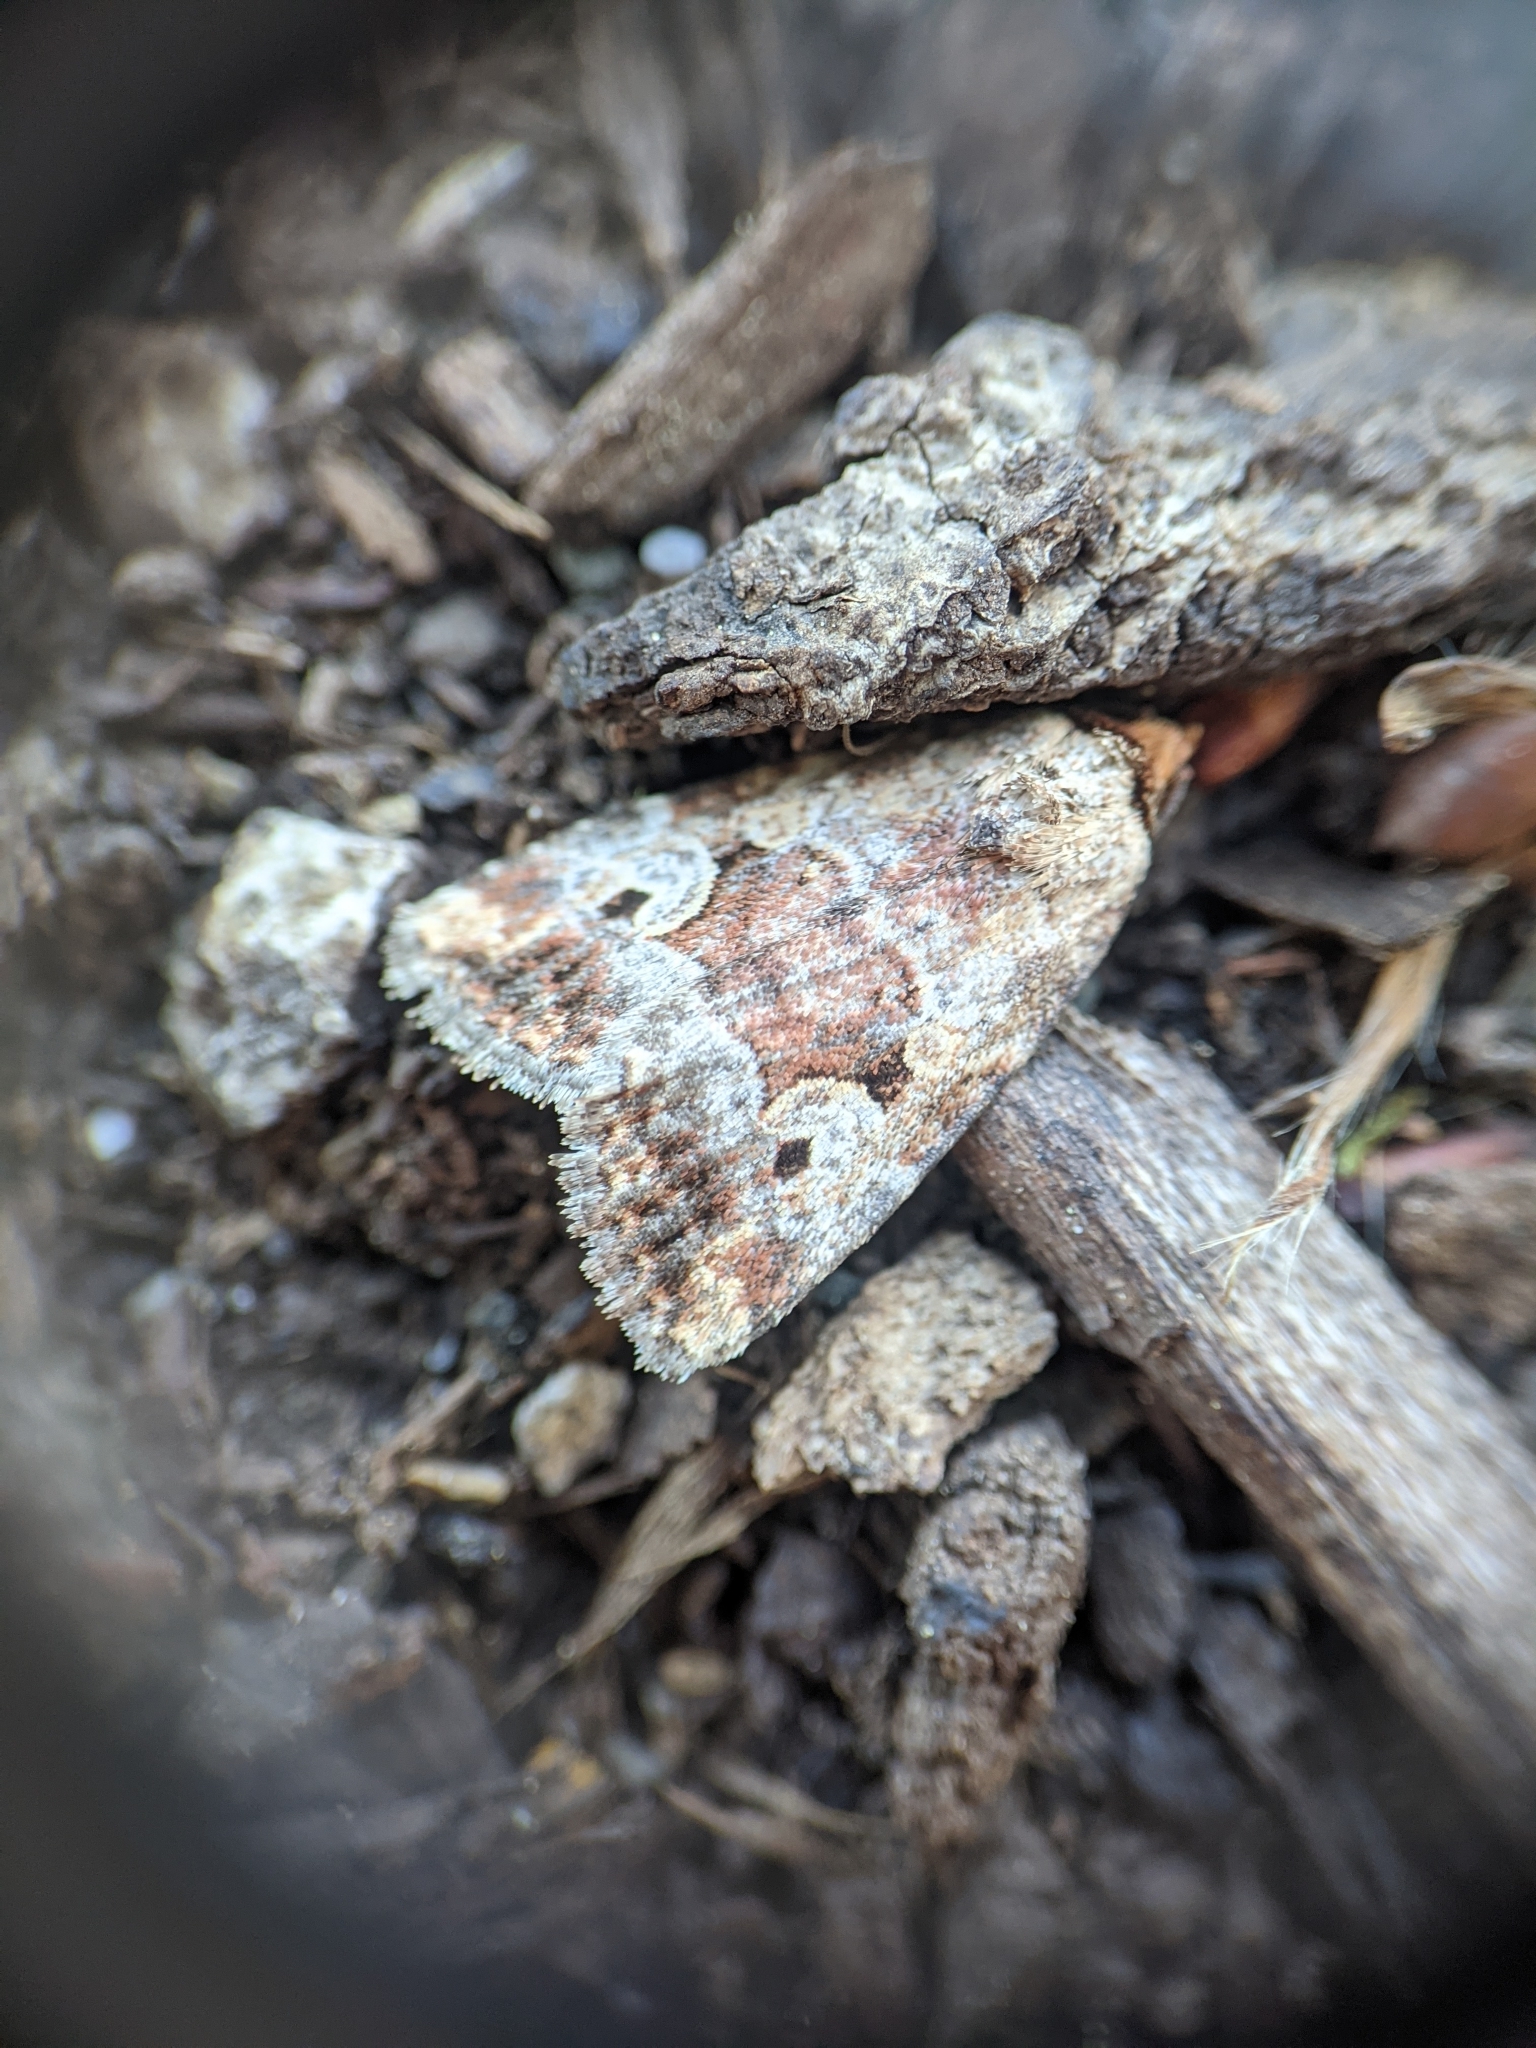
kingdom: Animalia
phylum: Arthropoda
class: Insecta
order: Lepidoptera
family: Noctuidae
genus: Elaphria
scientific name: Elaphria alapallida
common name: Pale-winged midget
